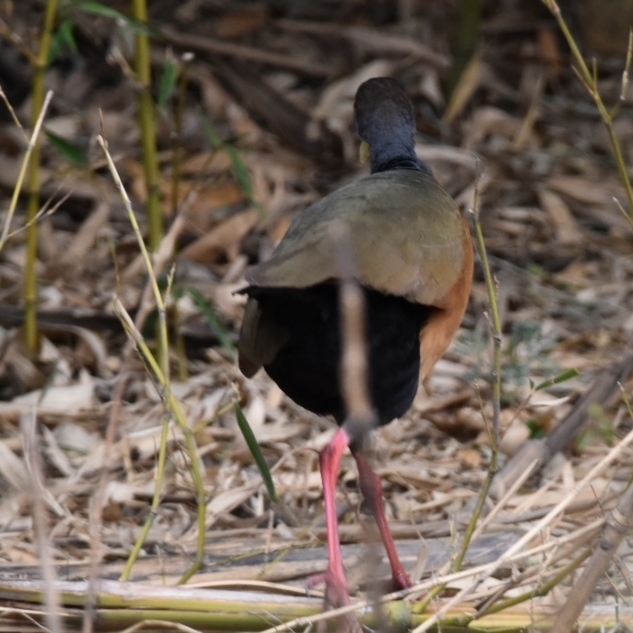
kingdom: Animalia
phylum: Chordata
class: Aves
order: Gruiformes
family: Rallidae
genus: Aramides
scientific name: Aramides cajanea
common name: Gray-necked wood-rail
